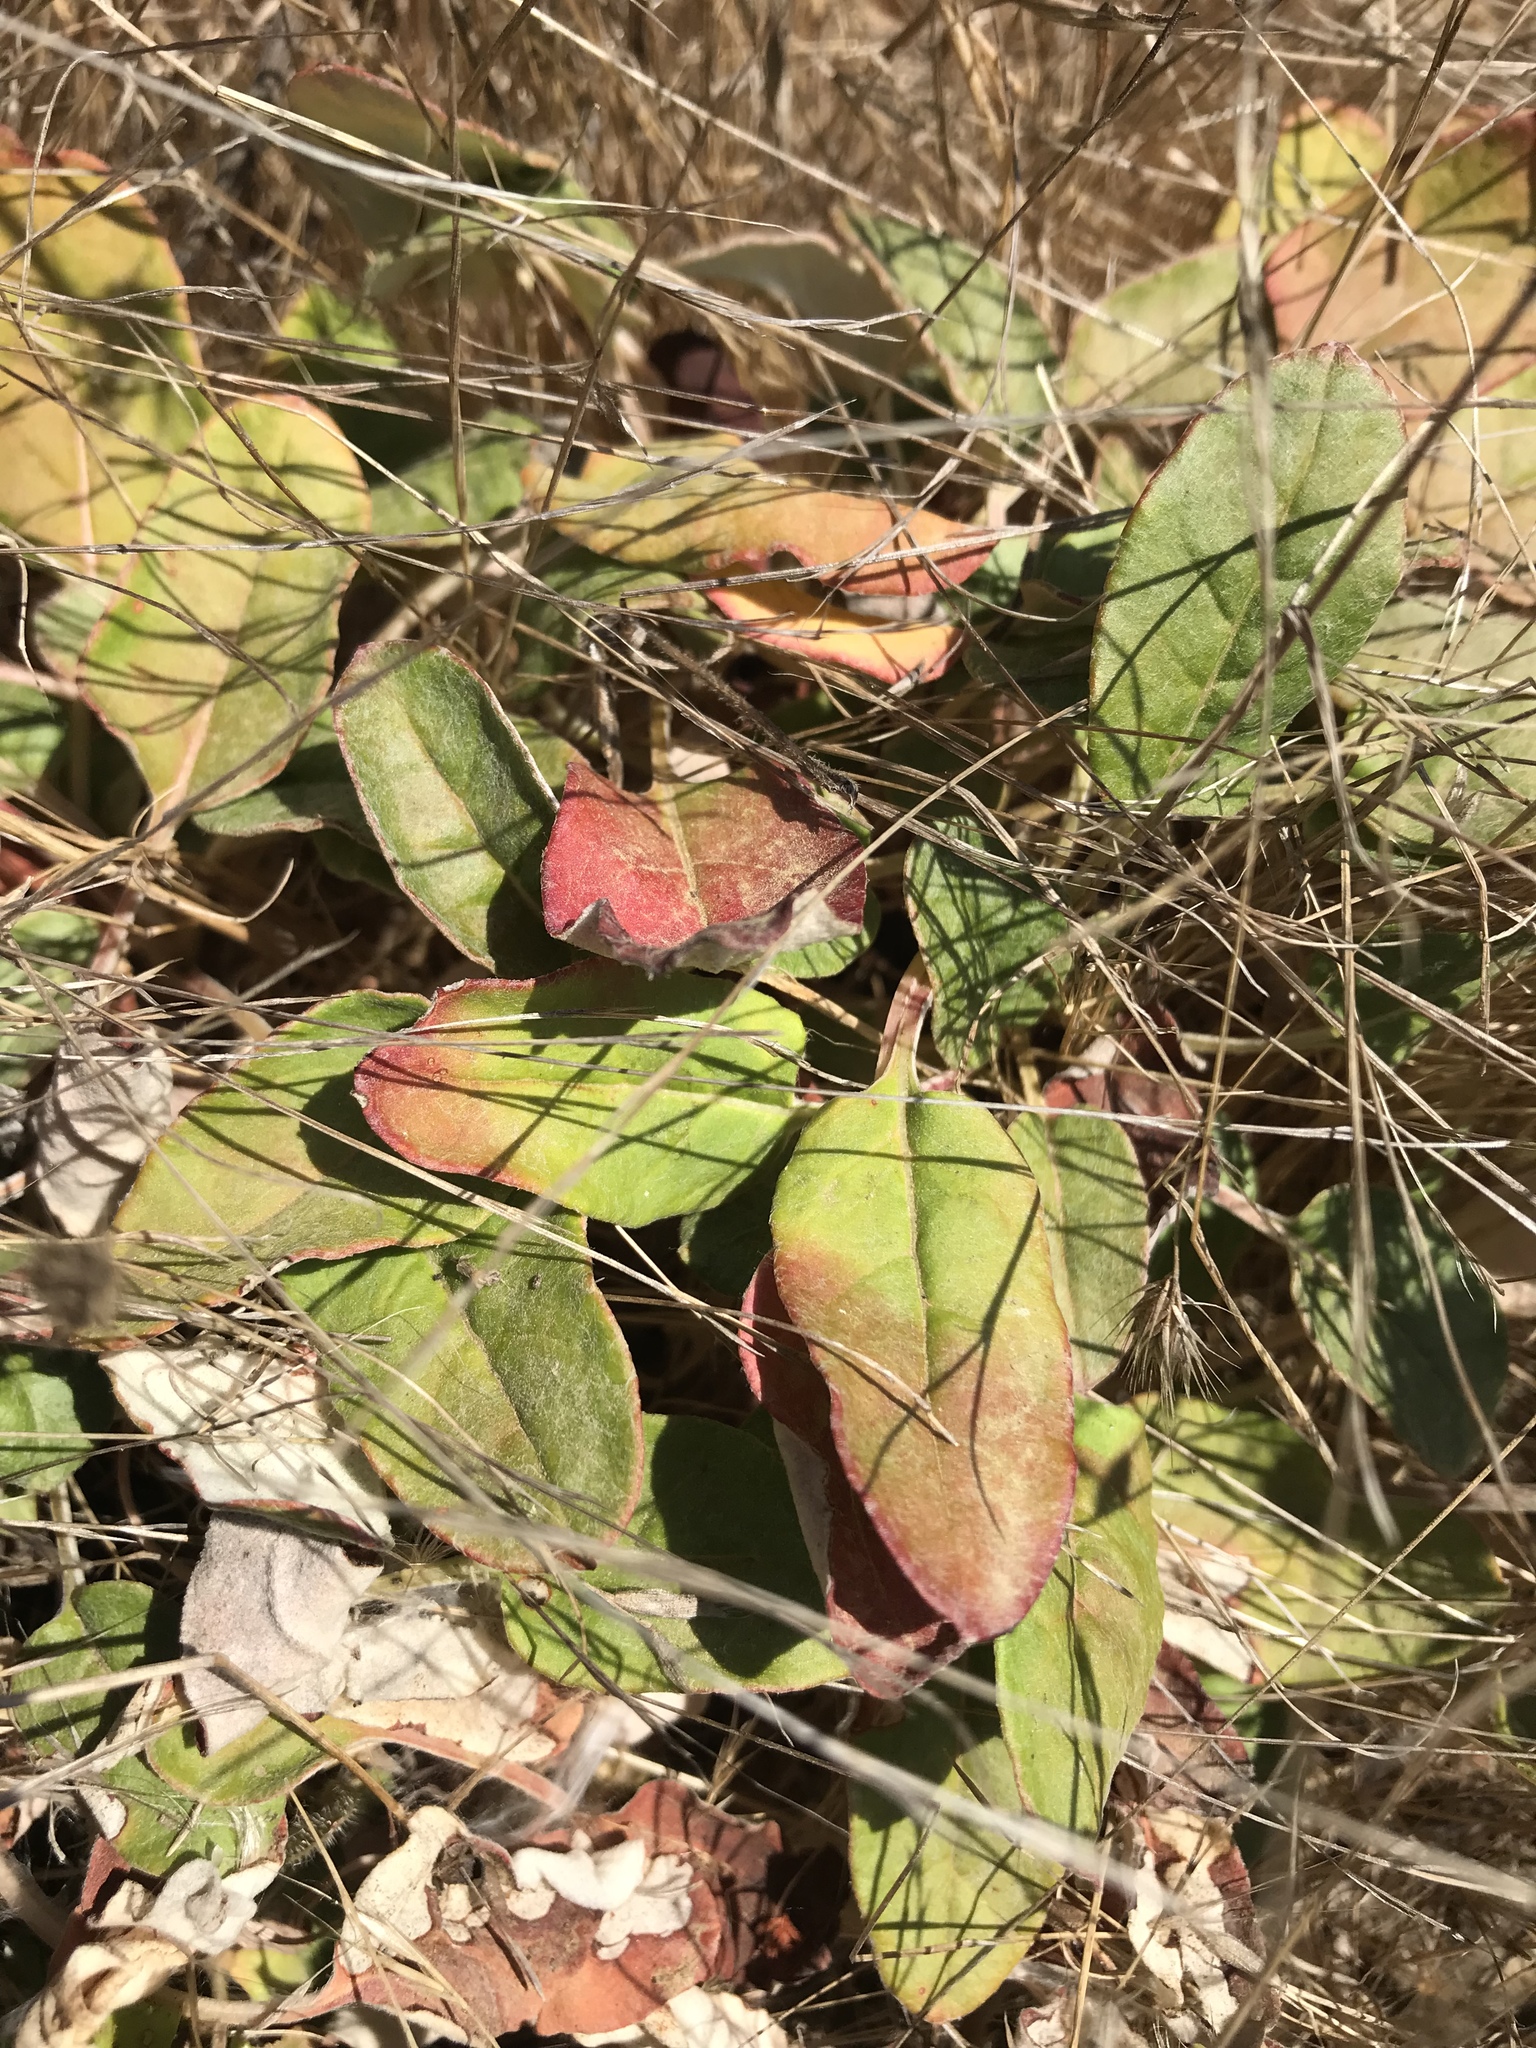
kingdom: Plantae
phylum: Tracheophyta
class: Magnoliopsida
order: Caryophyllales
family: Polygonaceae
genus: Eriogonum
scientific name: Eriogonum latifolium
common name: Seaside wild buckwheat
